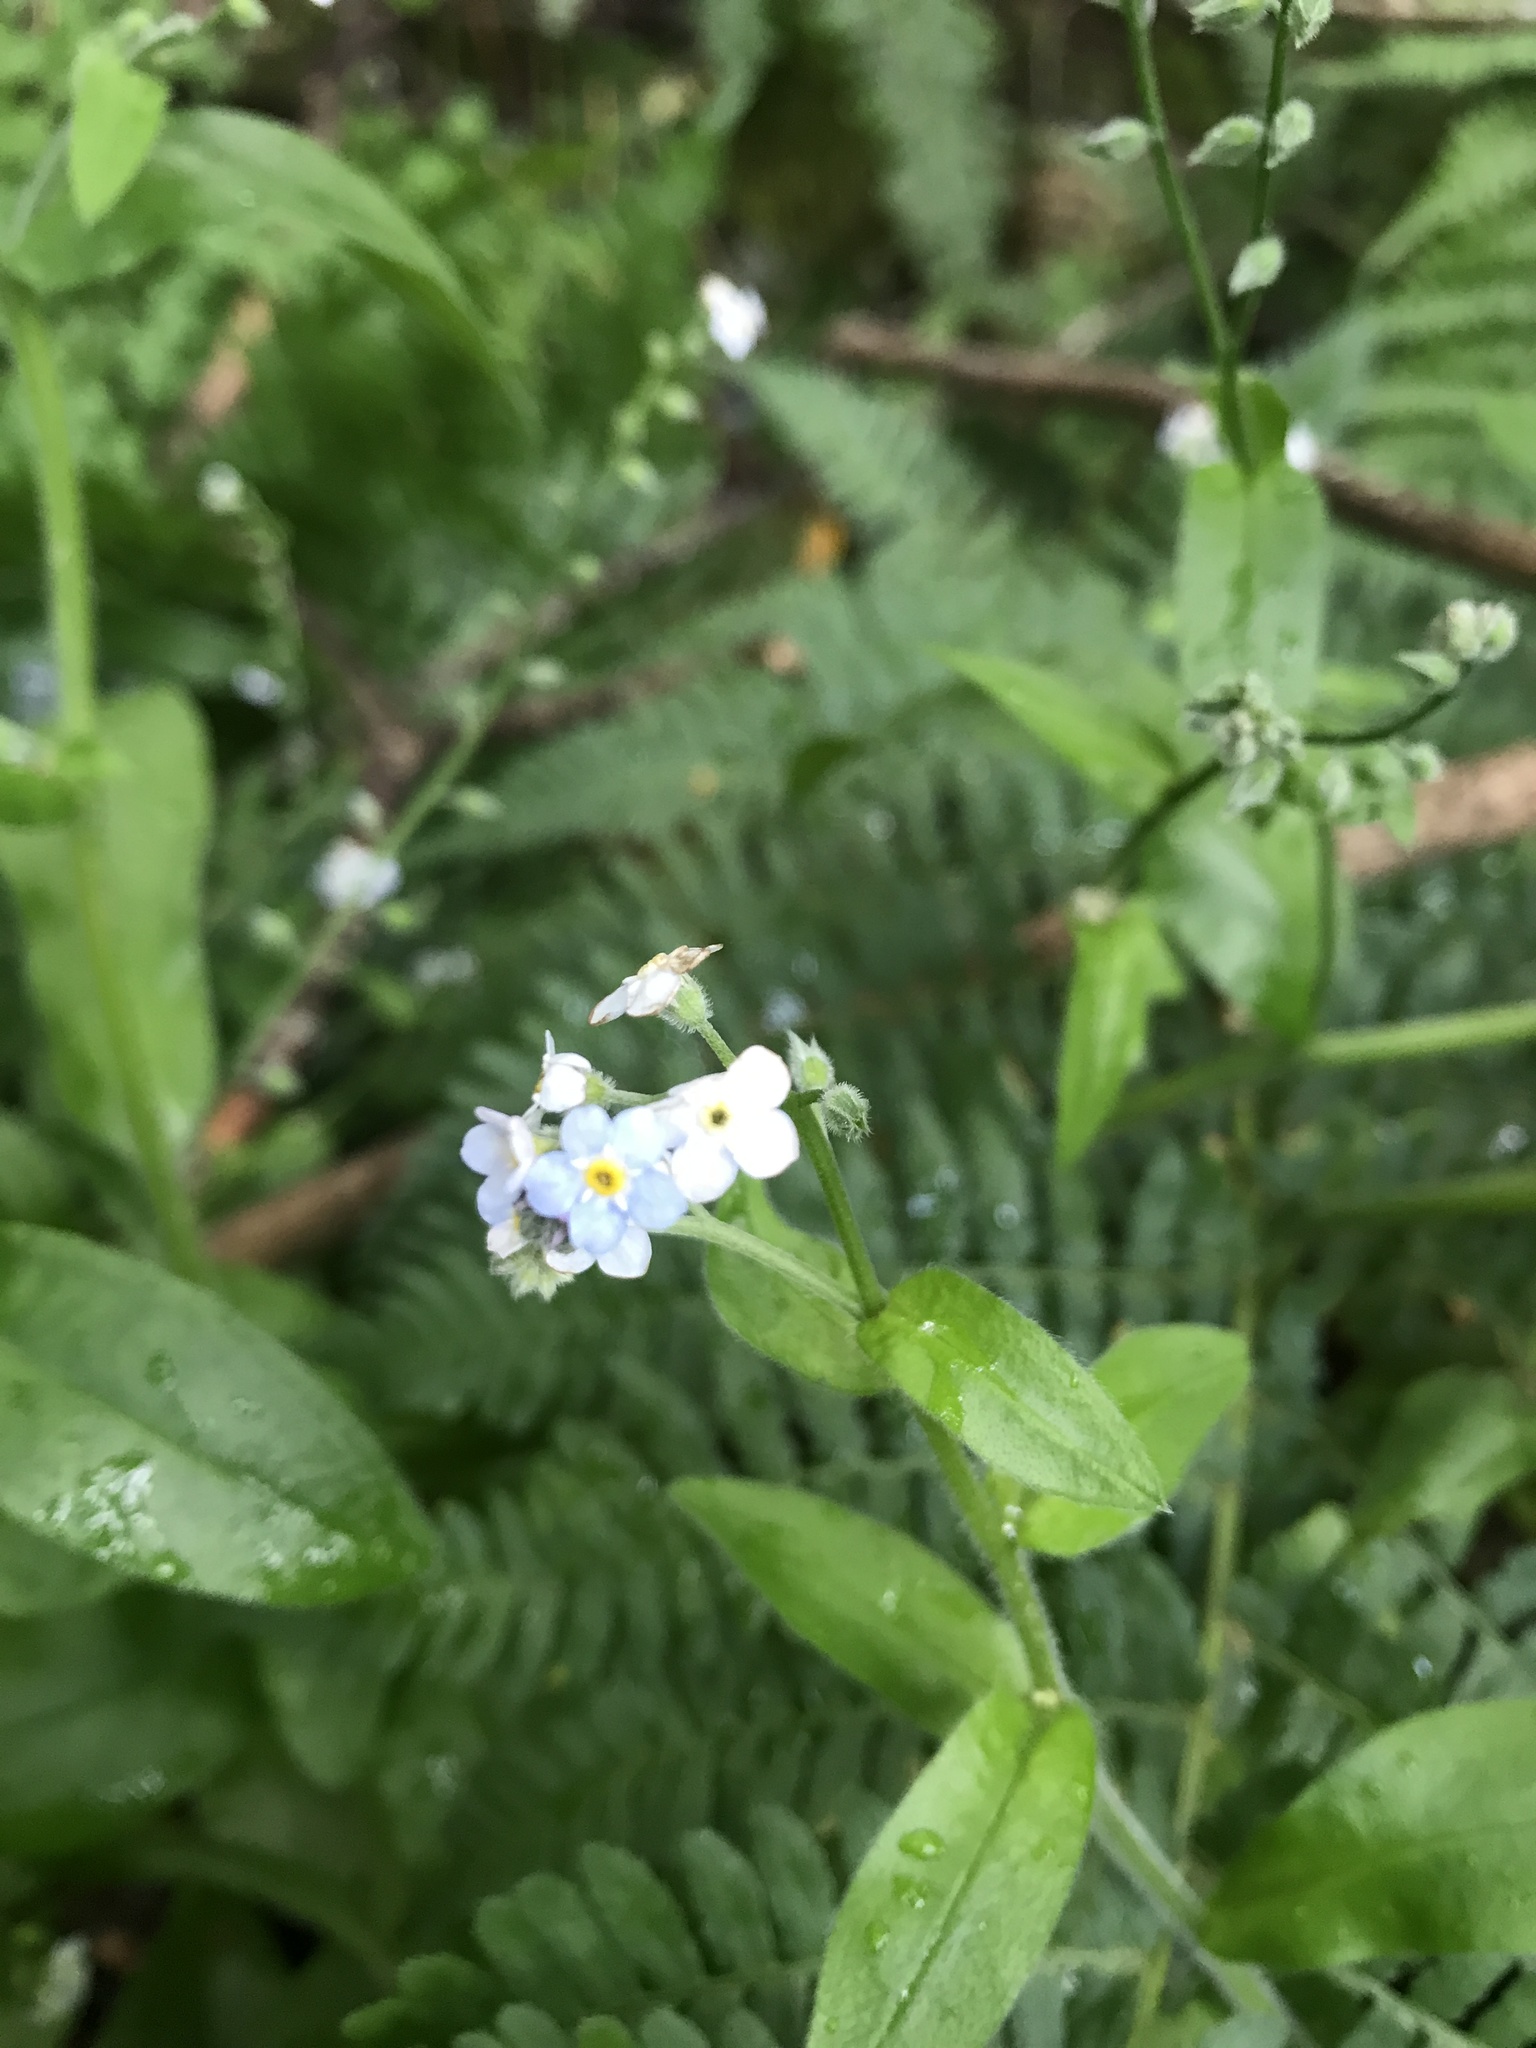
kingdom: Plantae
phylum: Tracheophyta
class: Magnoliopsida
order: Boraginales
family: Boraginaceae
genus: Myosotis
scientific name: Myosotis latifolia
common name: Broadleaf forget-me-not
